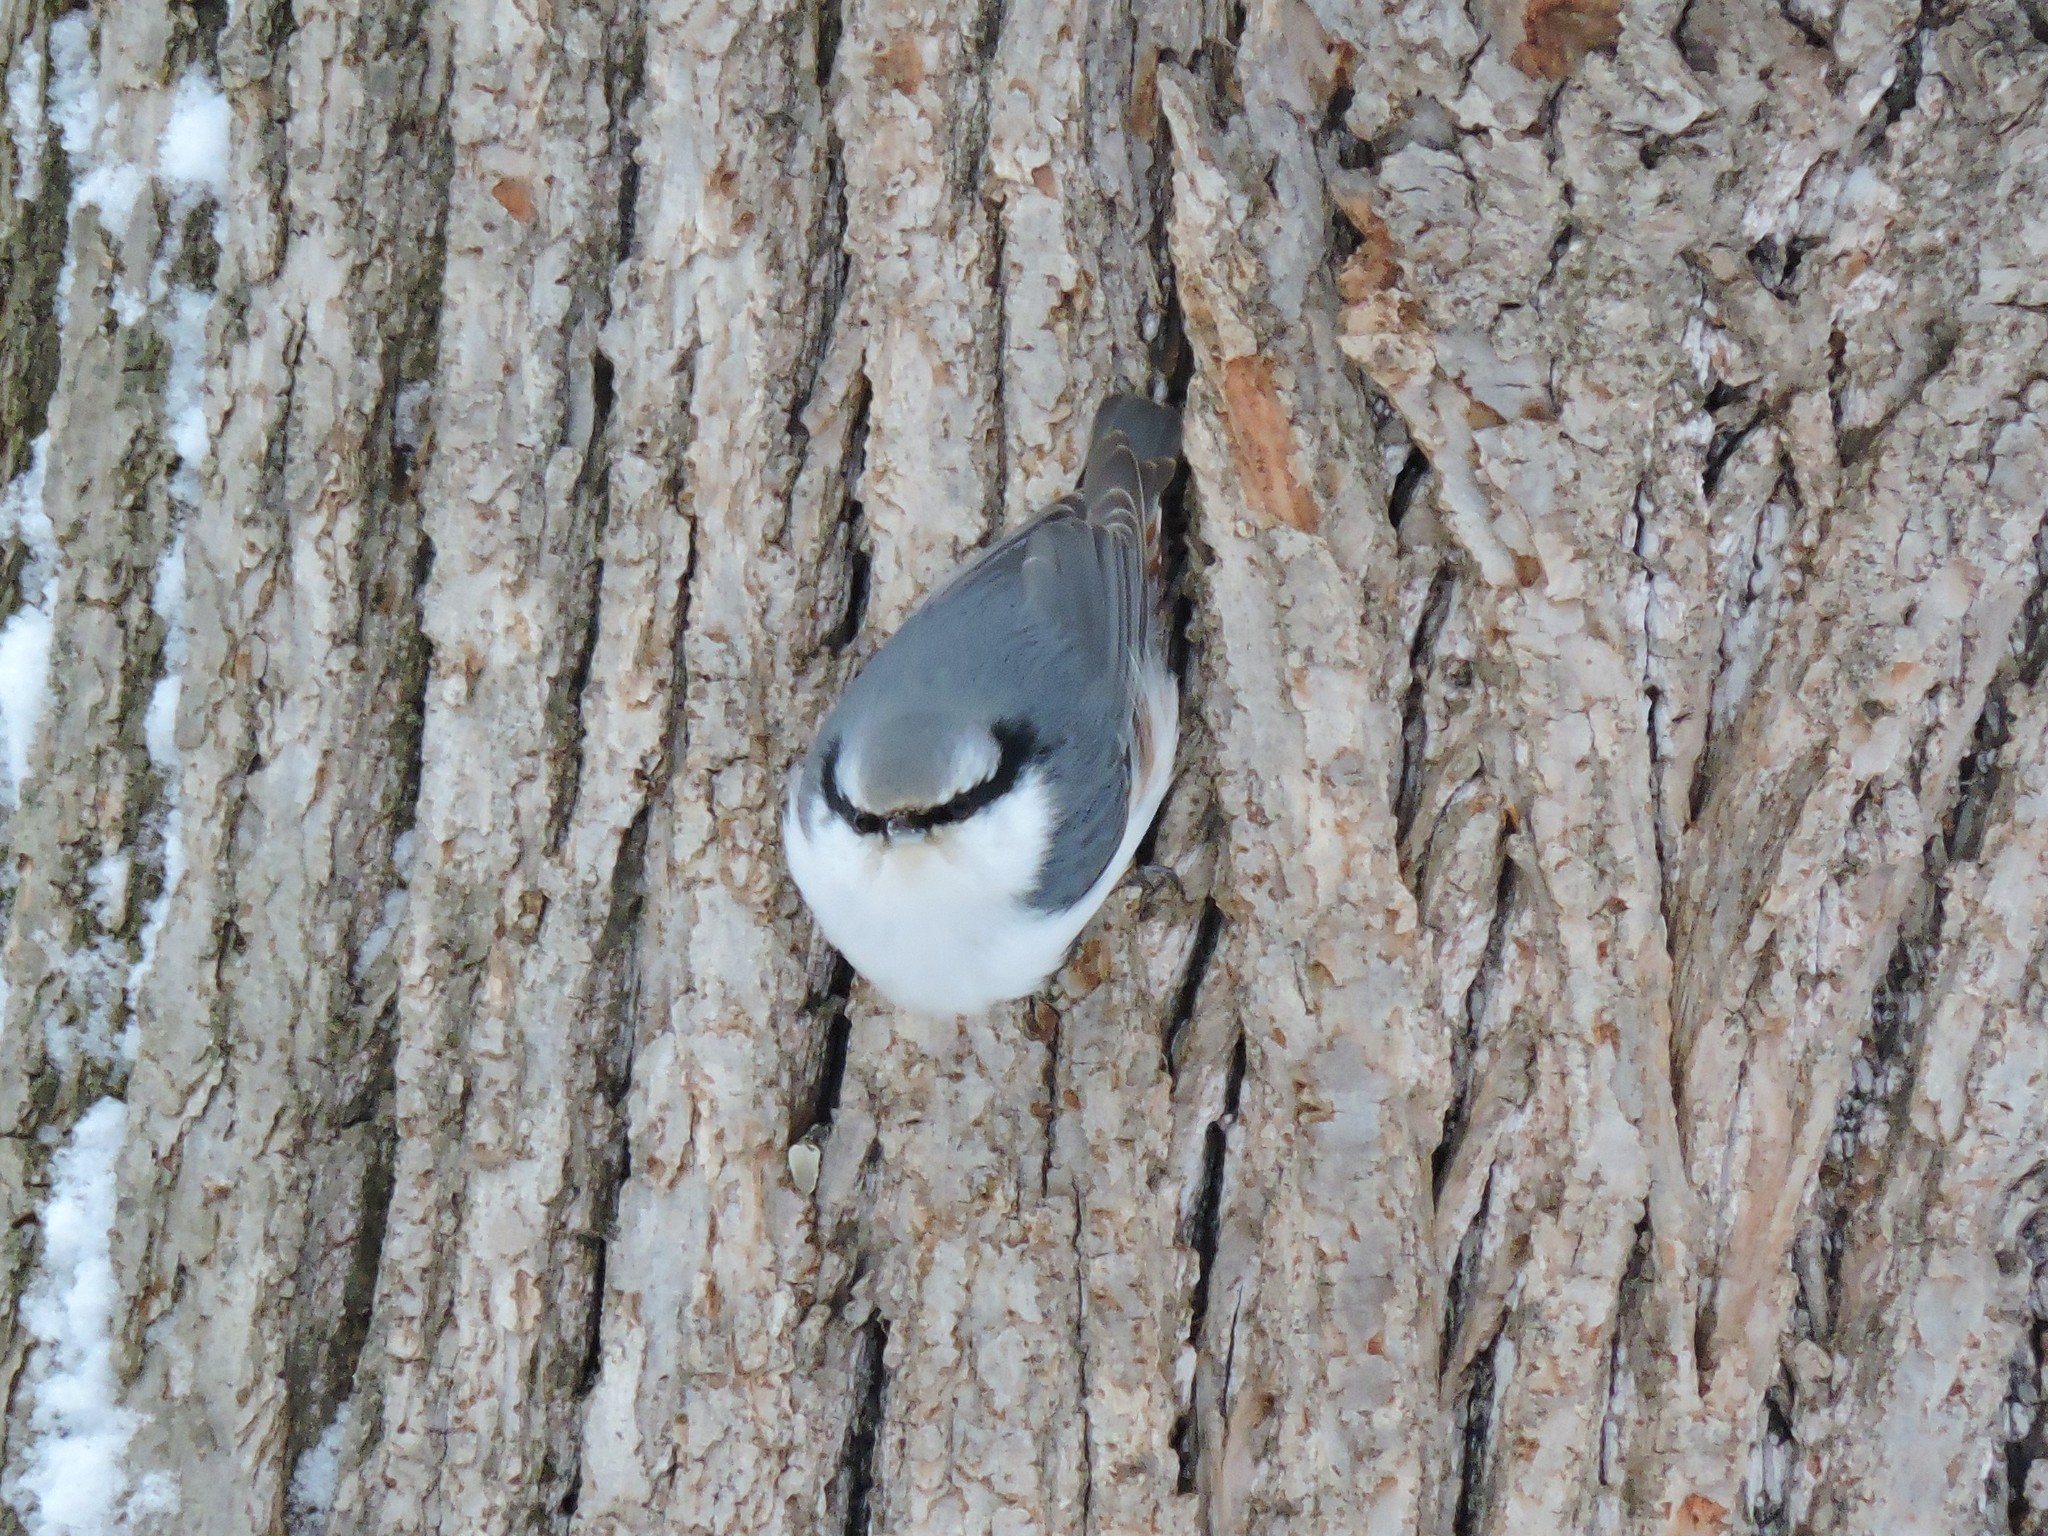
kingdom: Animalia
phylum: Chordata
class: Aves
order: Passeriformes
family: Sittidae
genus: Sitta
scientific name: Sitta europaea
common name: Eurasian nuthatch
